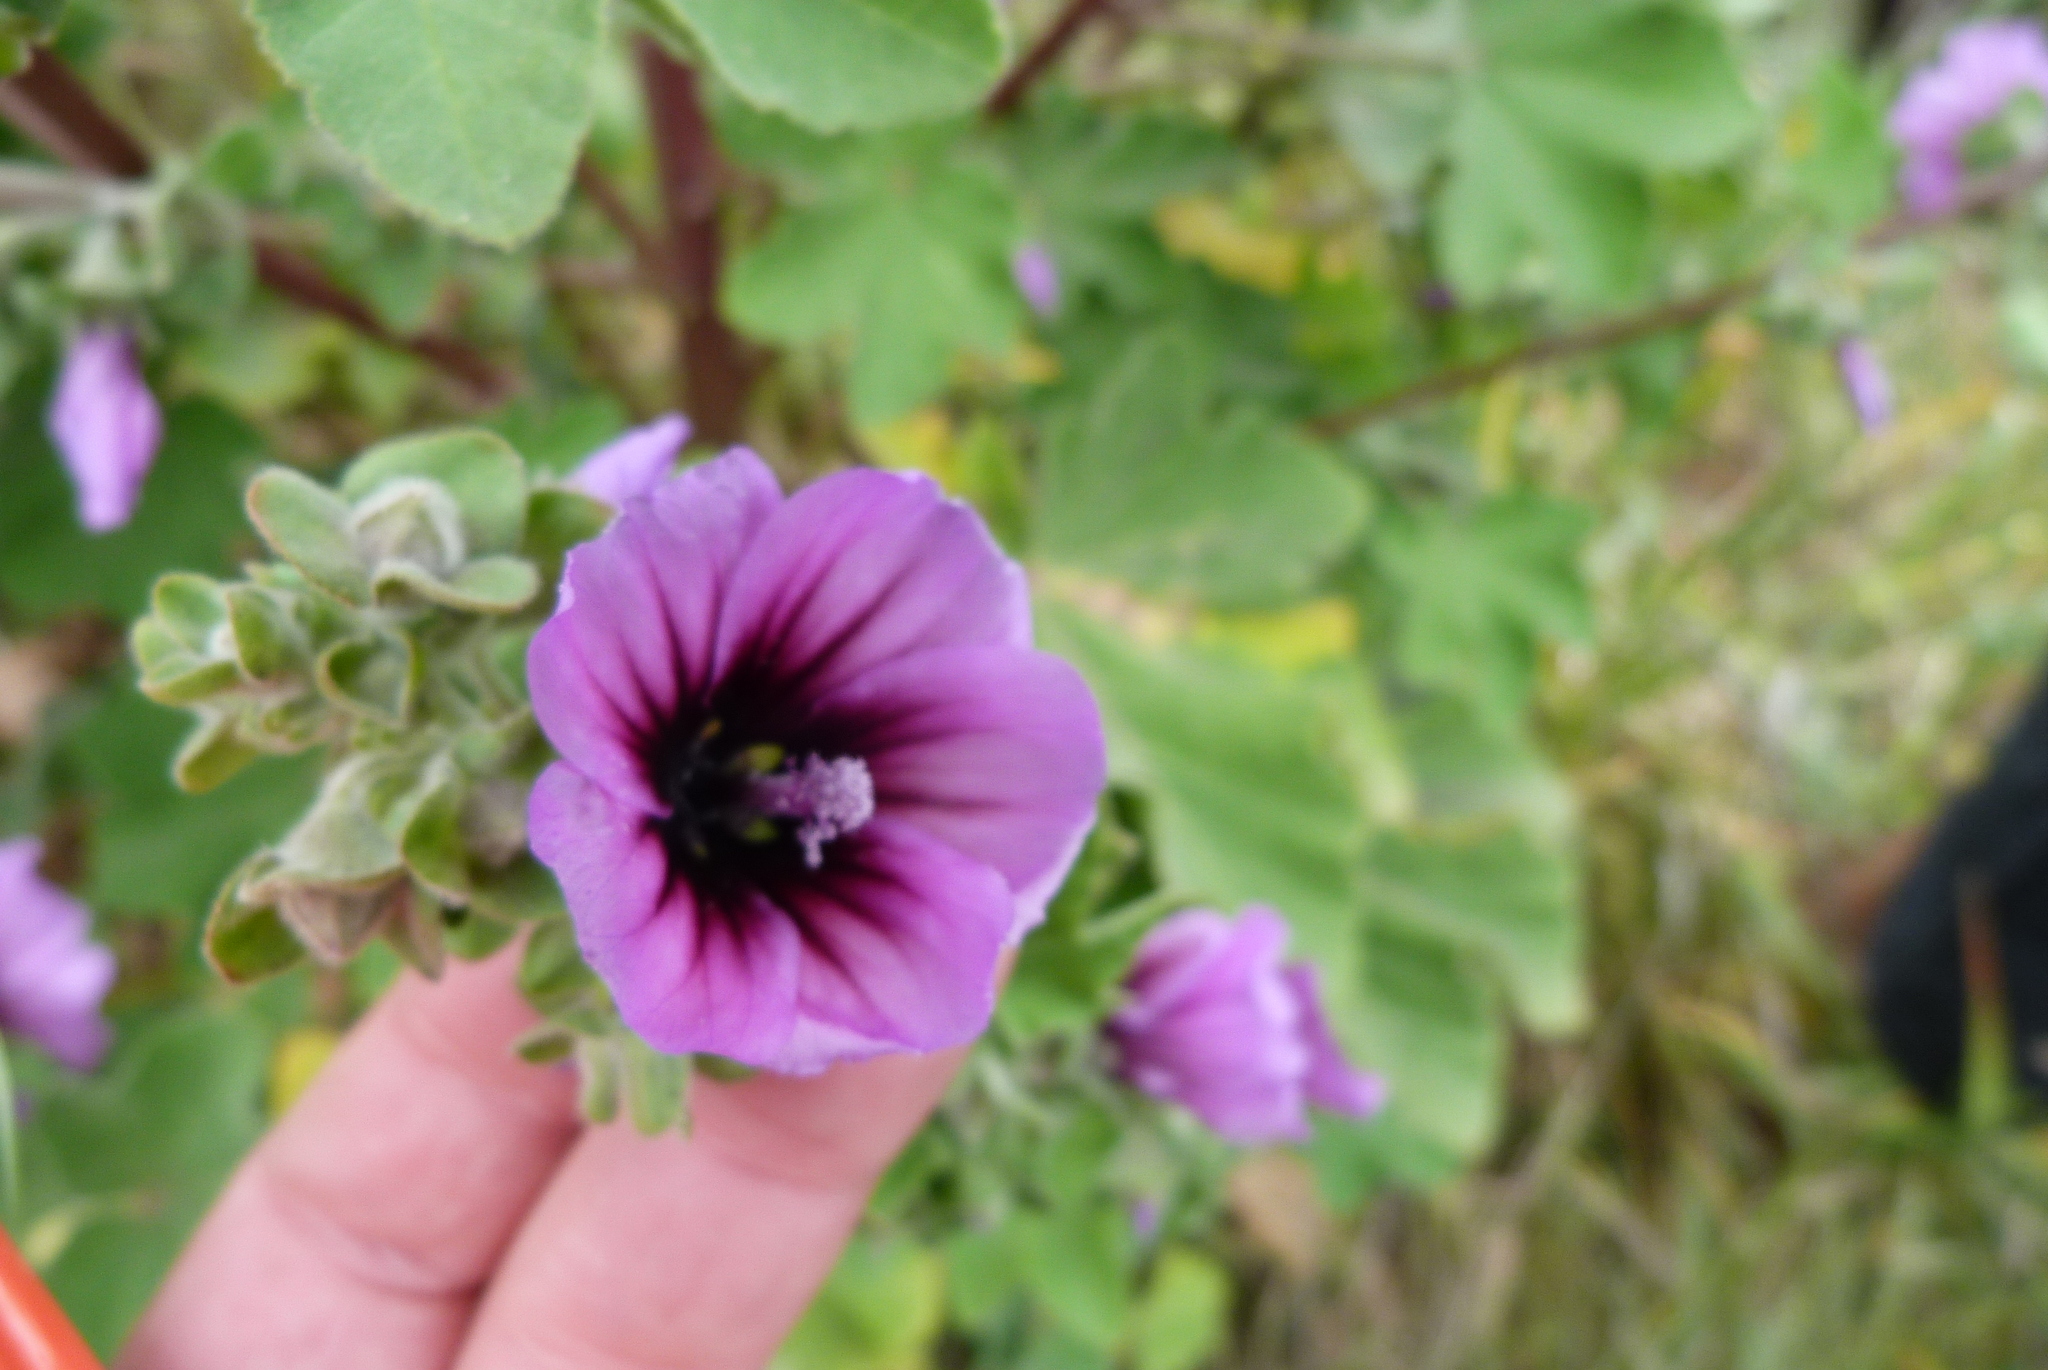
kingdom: Plantae
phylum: Tracheophyta
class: Magnoliopsida
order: Malvales
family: Malvaceae
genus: Malva
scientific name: Malva arborea
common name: Tree mallow
